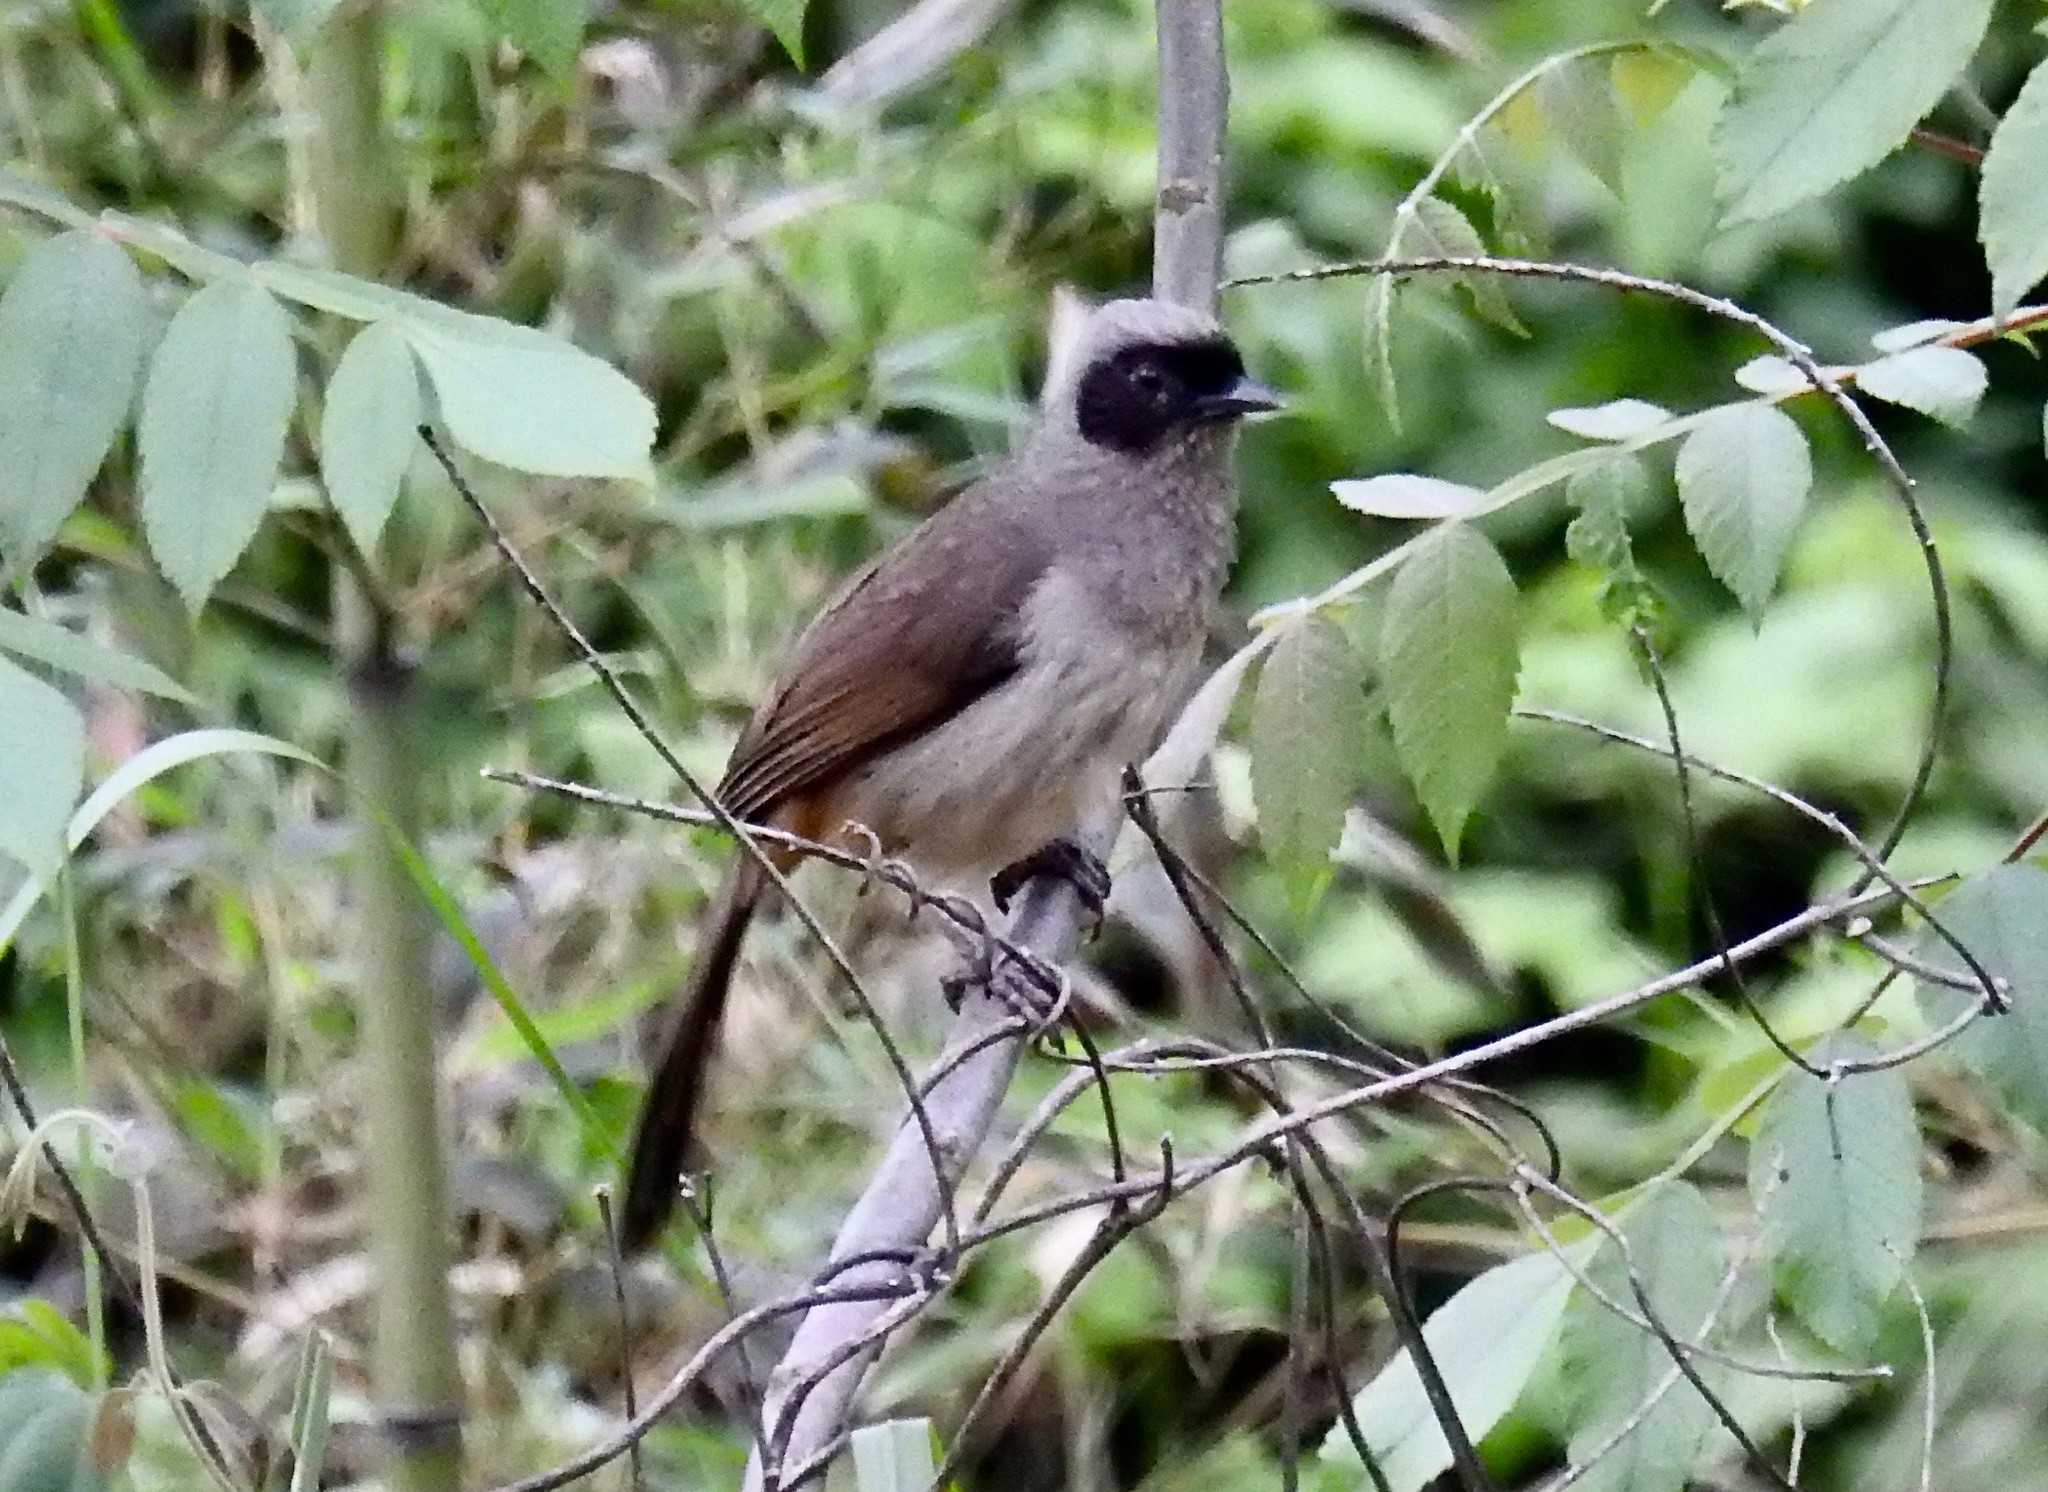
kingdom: Animalia
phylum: Chordata
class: Aves
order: Passeriformes
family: Leiothrichidae
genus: Garrulax
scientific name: Garrulax perspicillatus
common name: Masked laughingthrush
